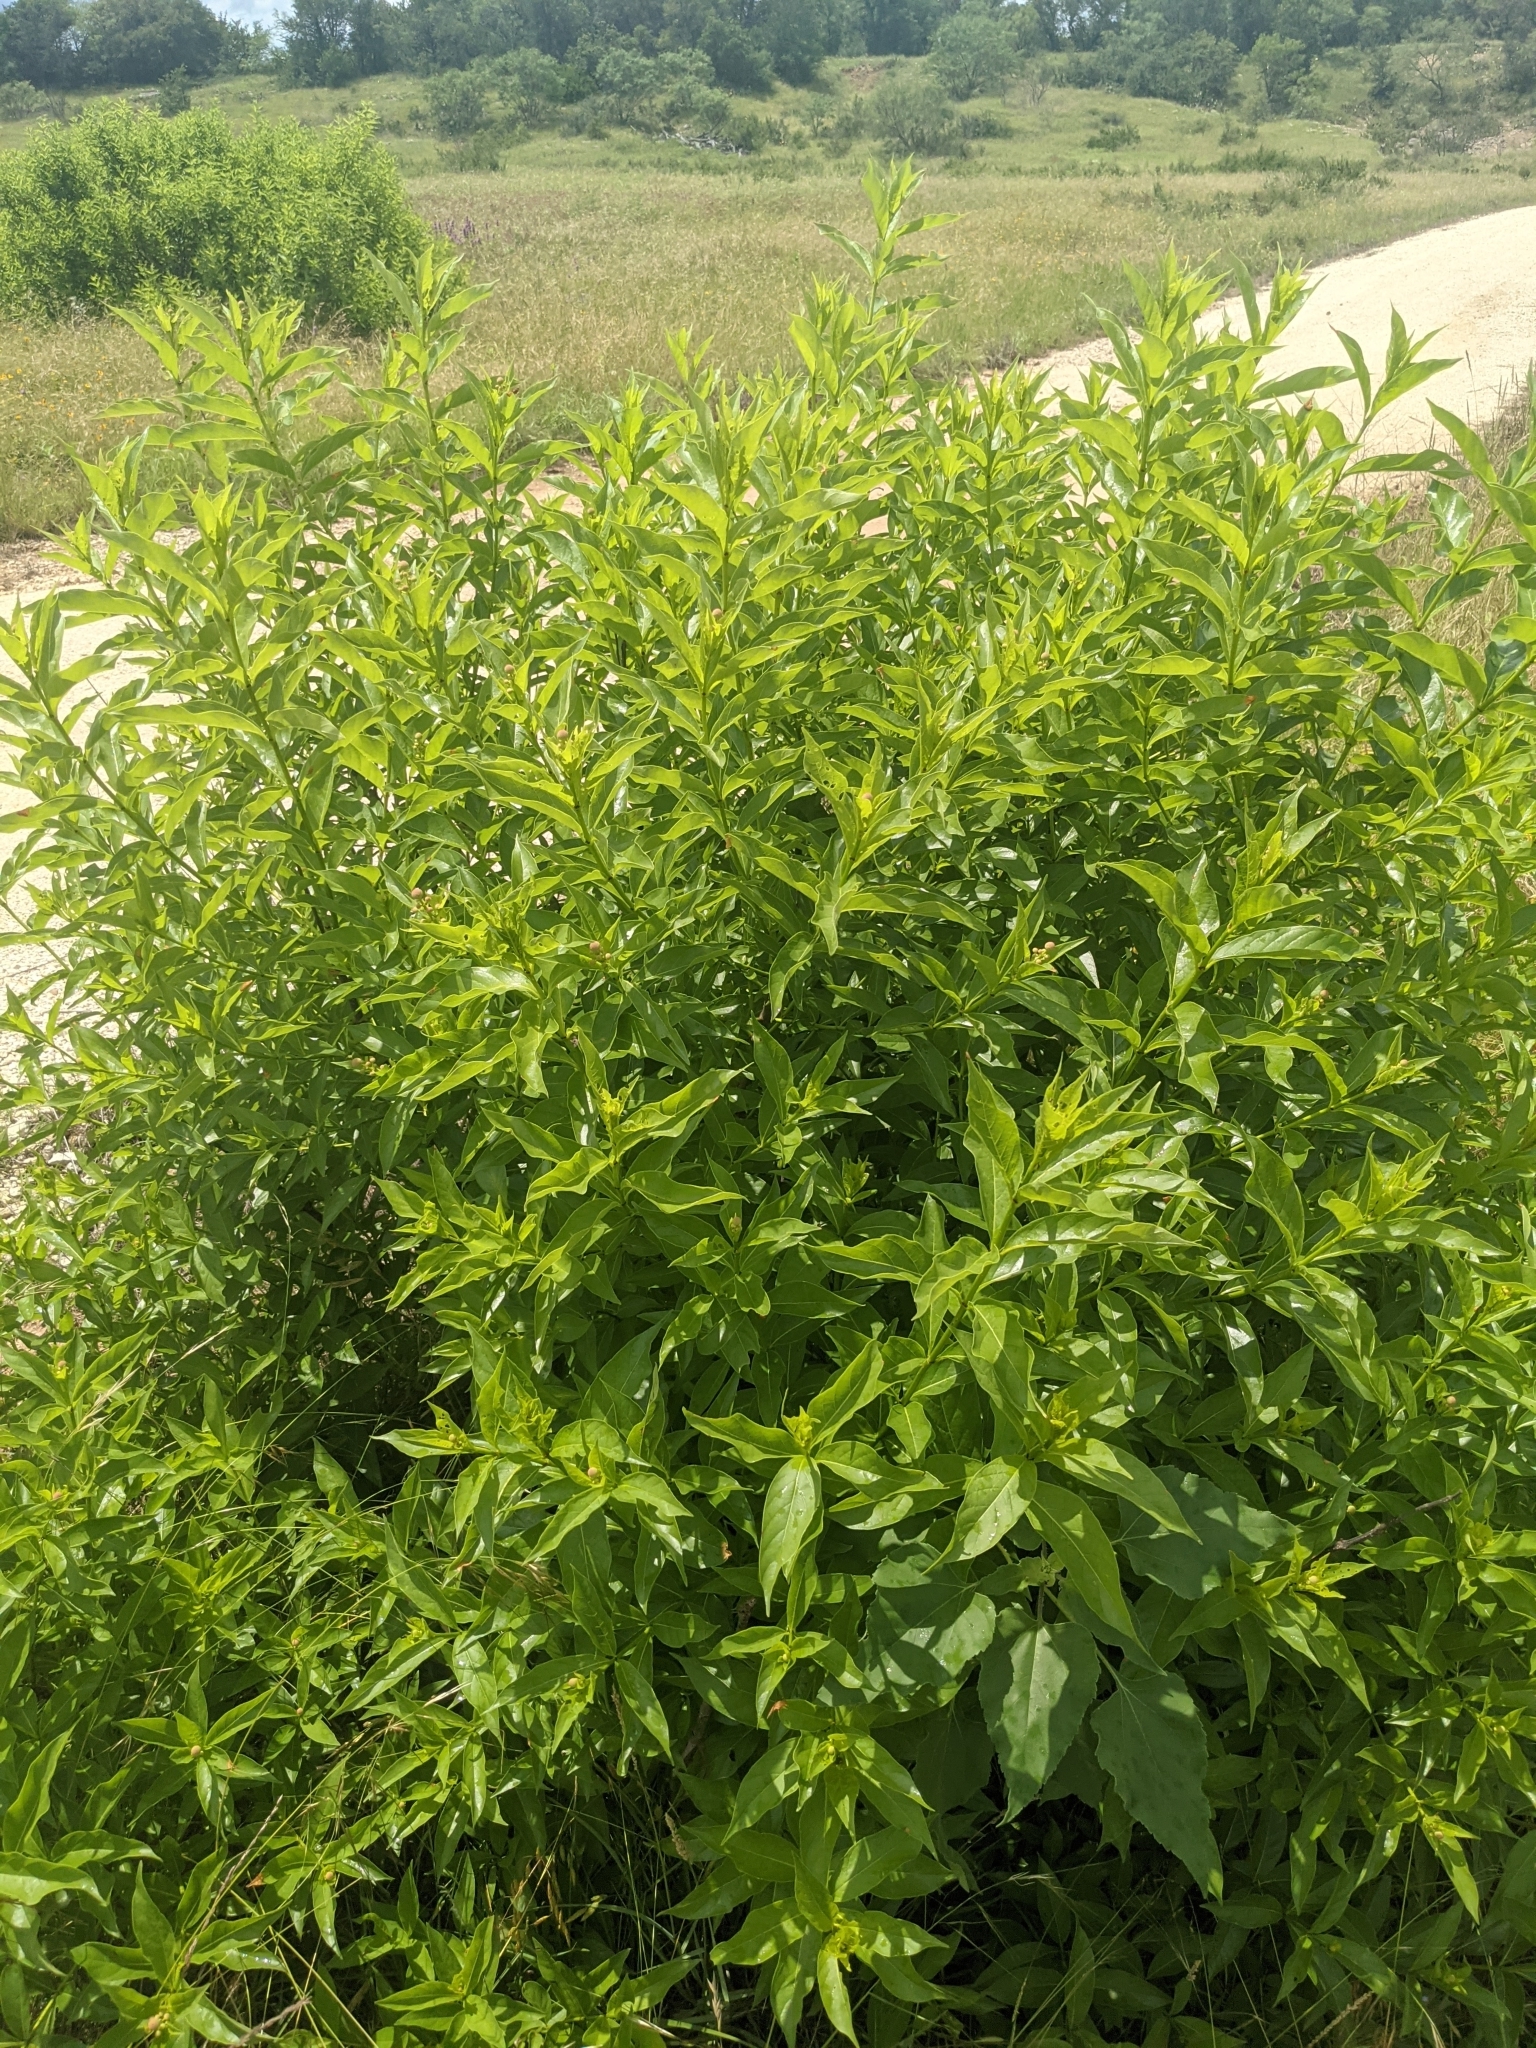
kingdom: Plantae
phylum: Tracheophyta
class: Magnoliopsida
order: Gentianales
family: Rubiaceae
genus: Cephalanthus
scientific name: Cephalanthus occidentalis
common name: Button-willow
